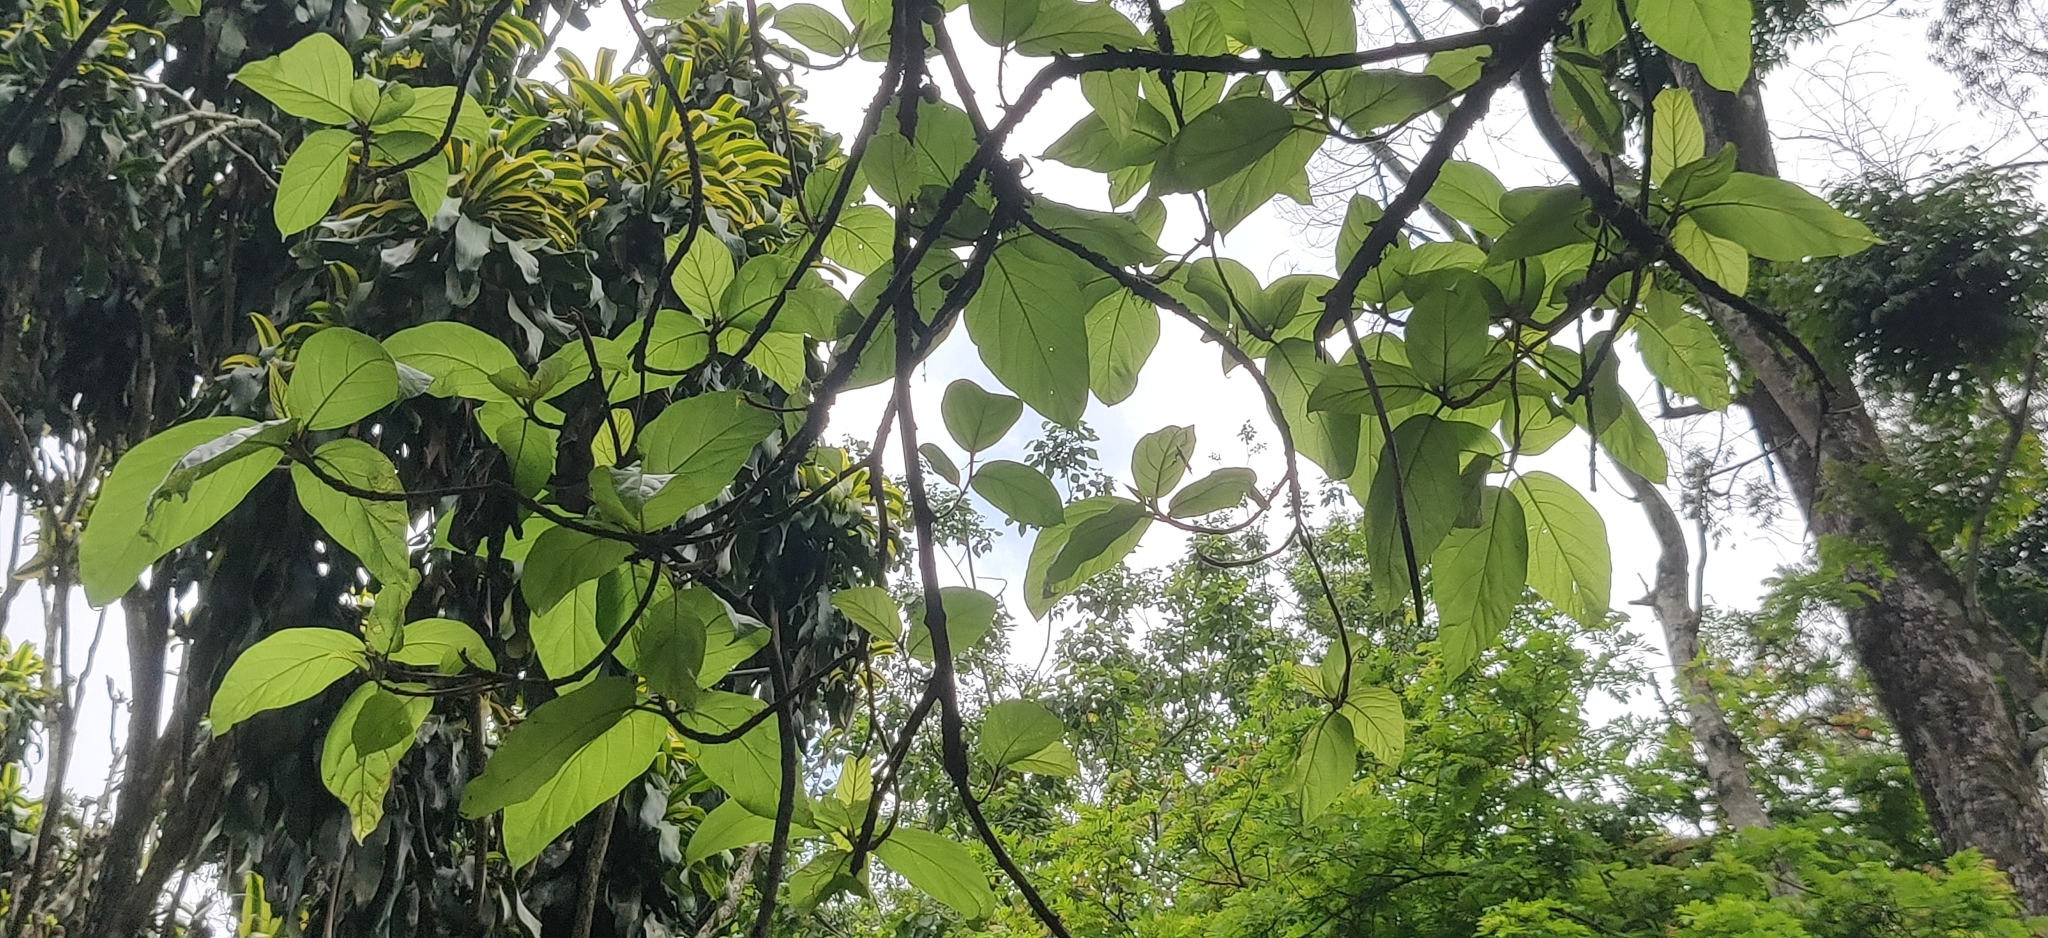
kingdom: Plantae
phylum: Tracheophyta
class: Magnoliopsida
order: Rosales
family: Moraceae
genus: Ficus
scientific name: Ficus hispida
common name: Hairy fig
